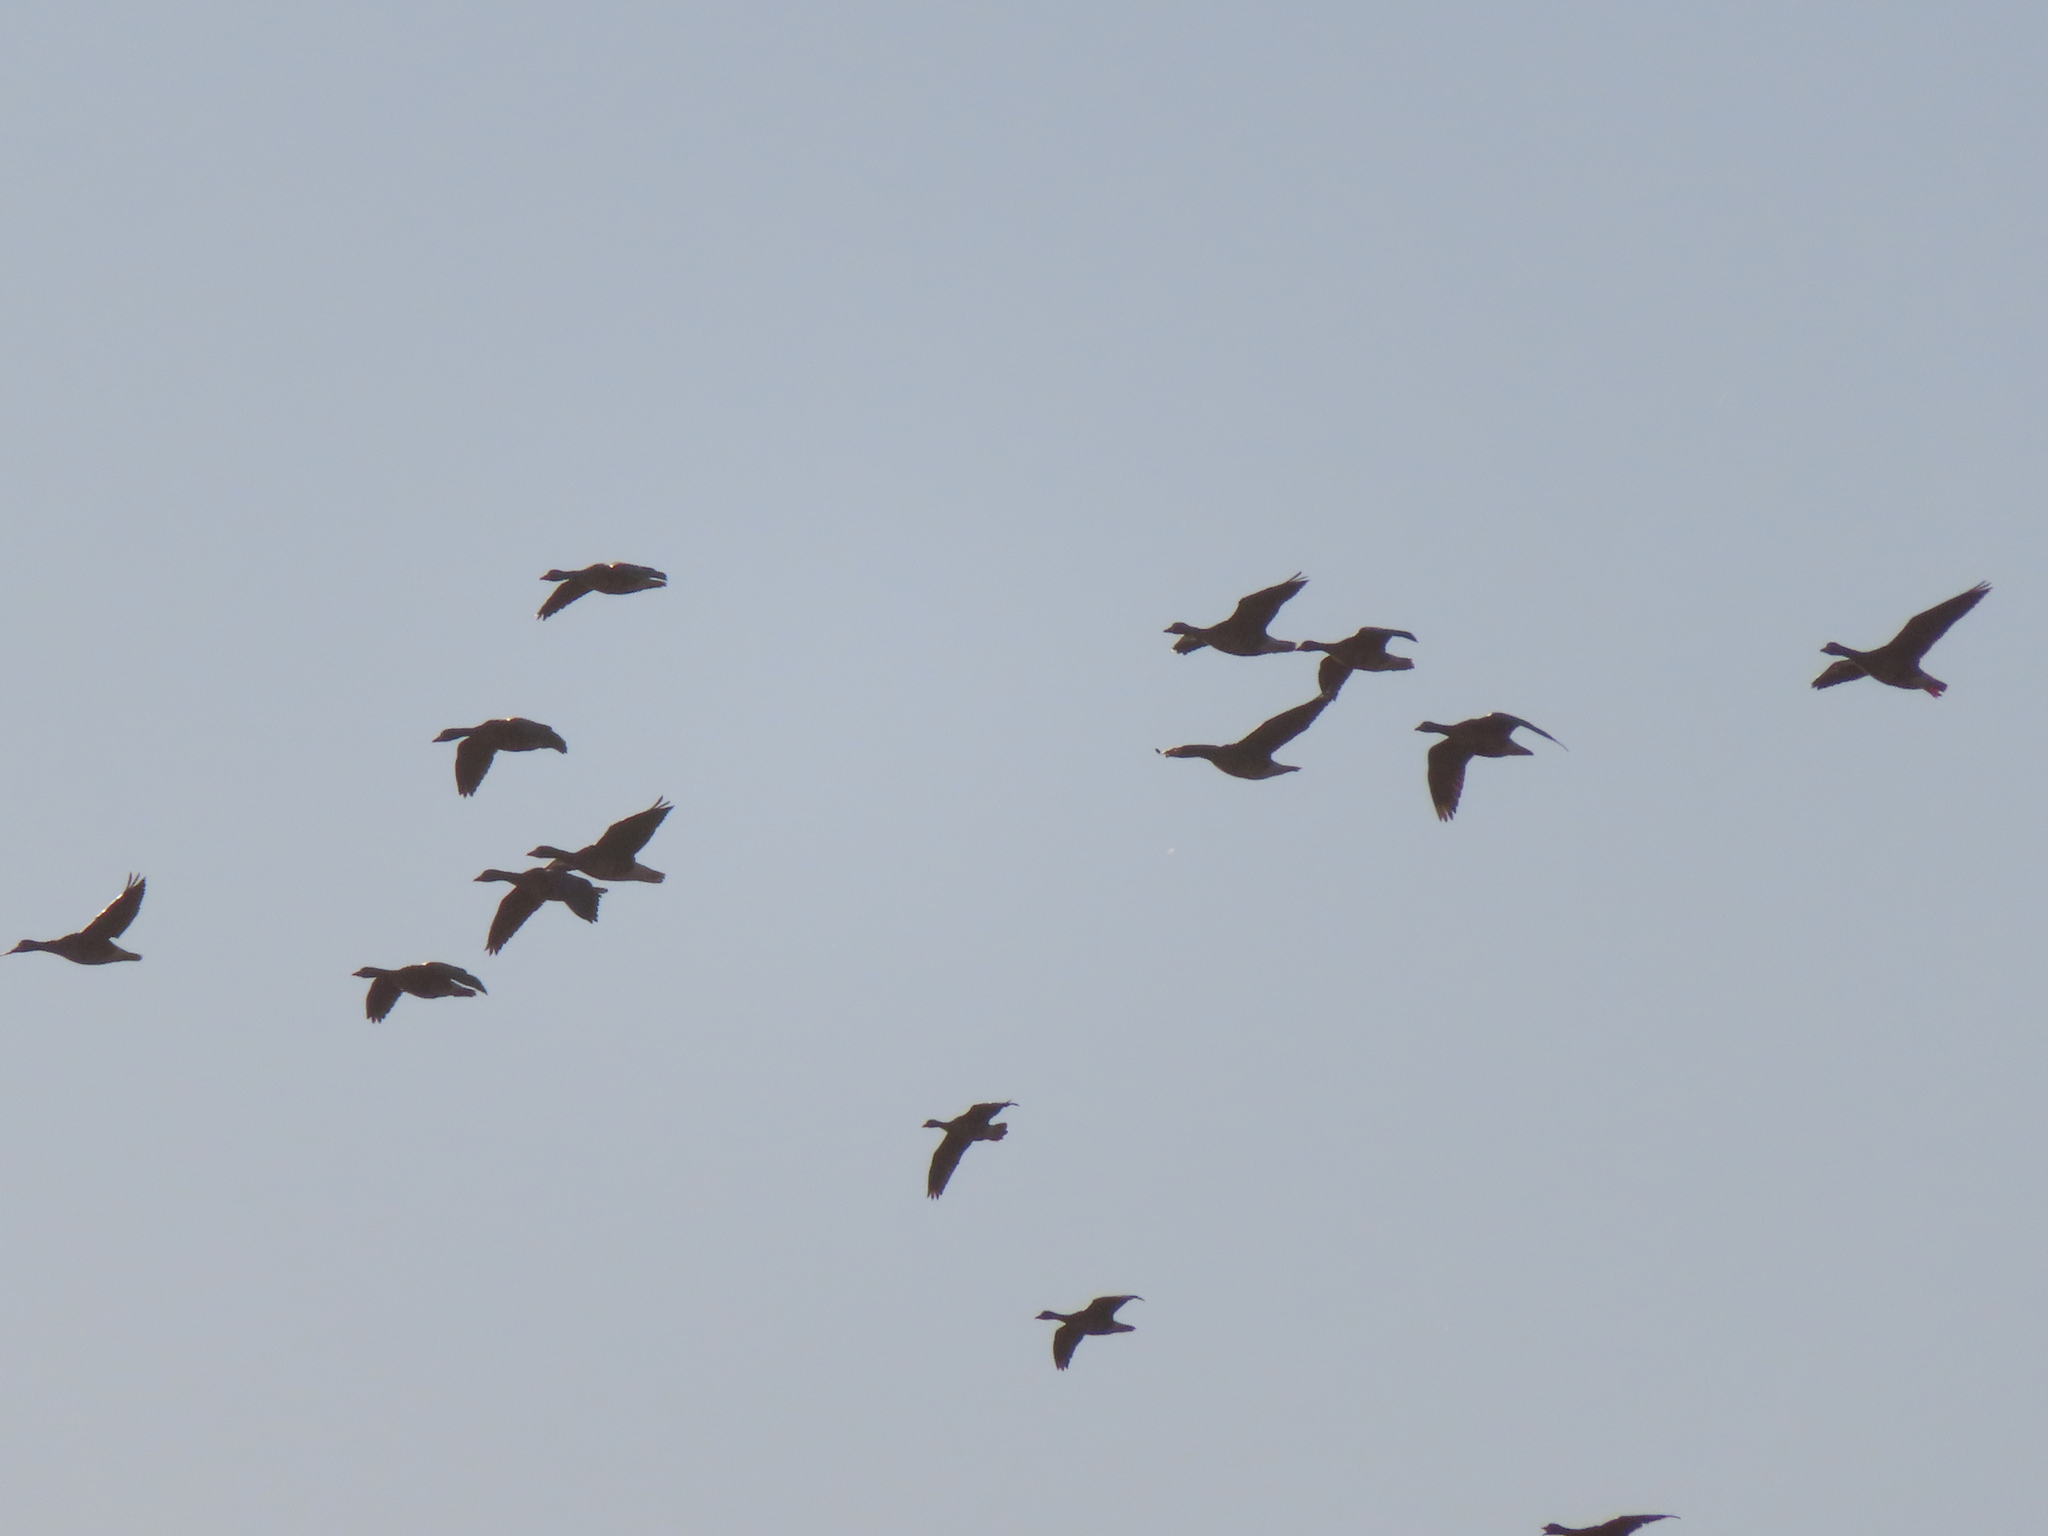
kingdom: Animalia
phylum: Chordata
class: Aves
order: Anseriformes
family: Anatidae
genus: Anser
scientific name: Anser caerulescens
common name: Snow goose
